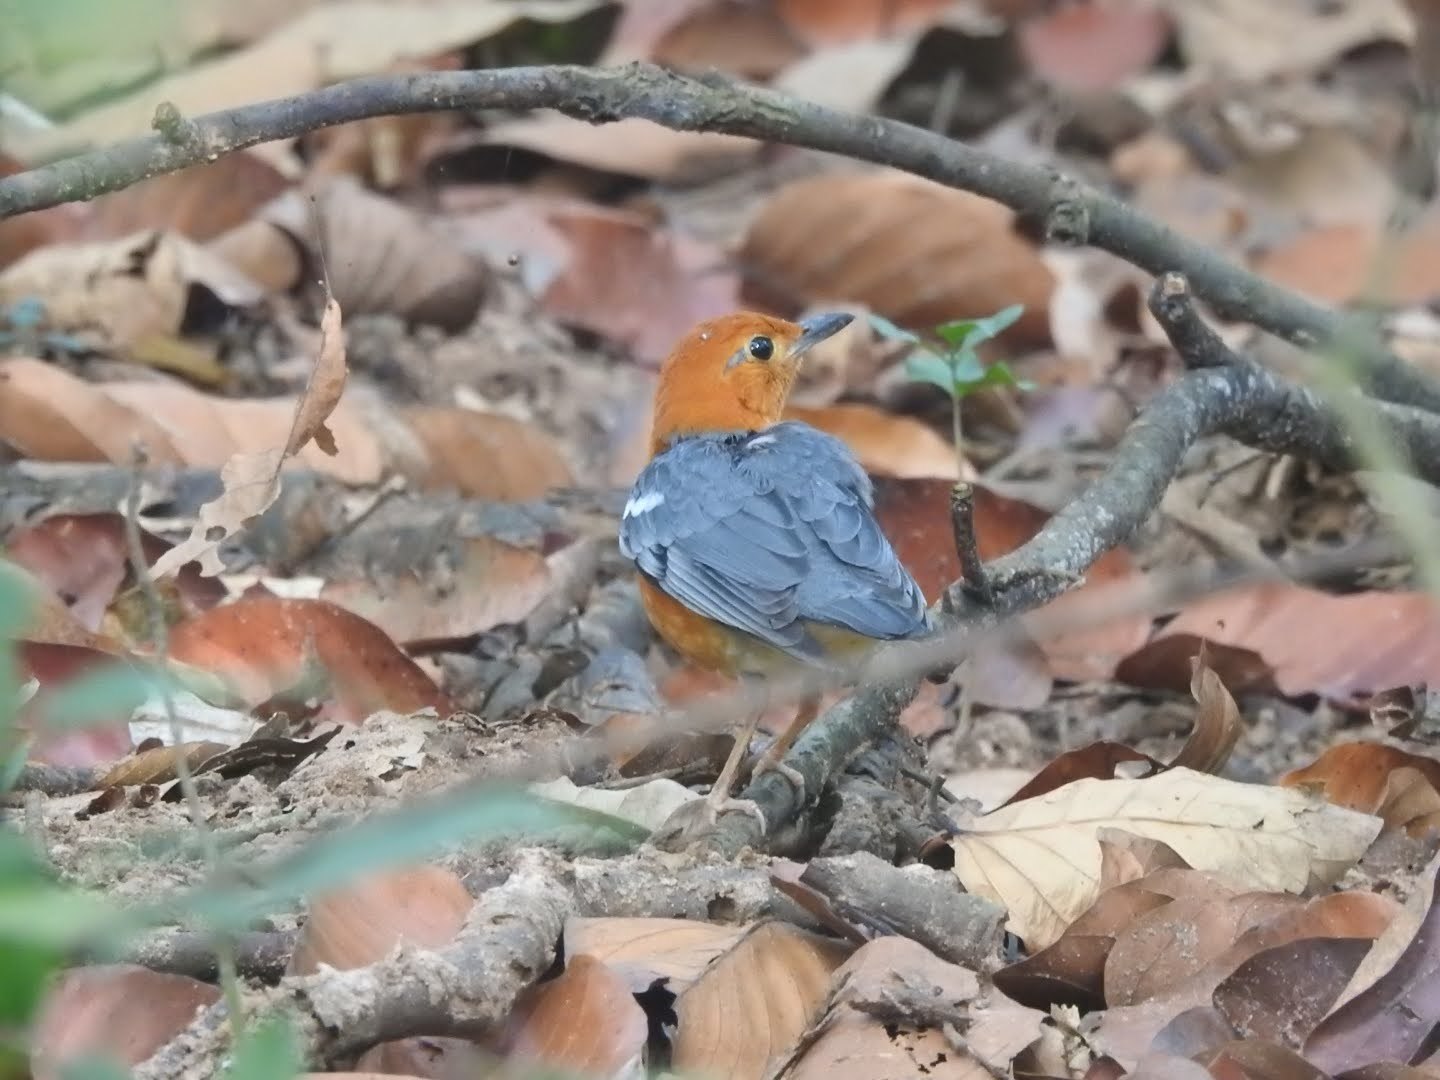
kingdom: Animalia
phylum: Chordata
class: Aves
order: Passeriformes
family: Turdidae
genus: Geokichla
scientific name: Geokichla citrina
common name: Orange-headed thrush
